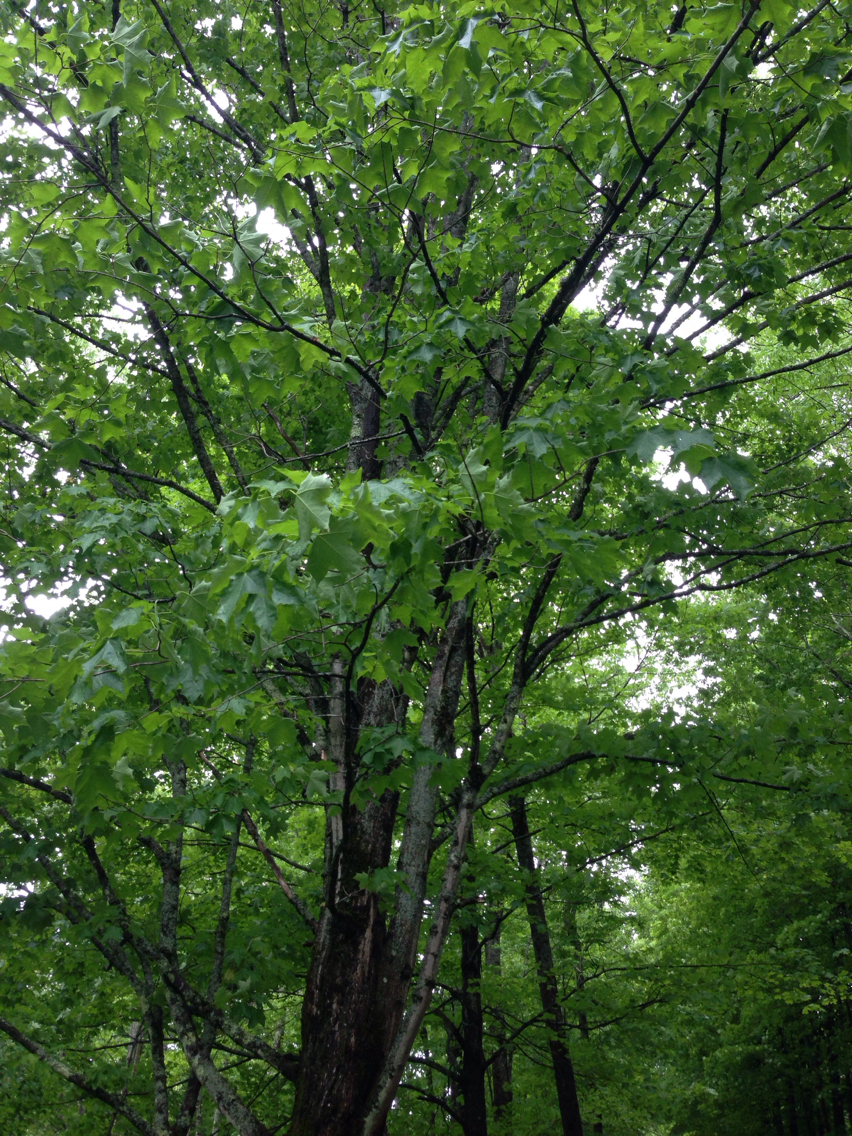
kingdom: Plantae
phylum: Tracheophyta
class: Magnoliopsida
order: Sapindales
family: Sapindaceae
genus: Acer
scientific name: Acer saccharum
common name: Sugar maple
